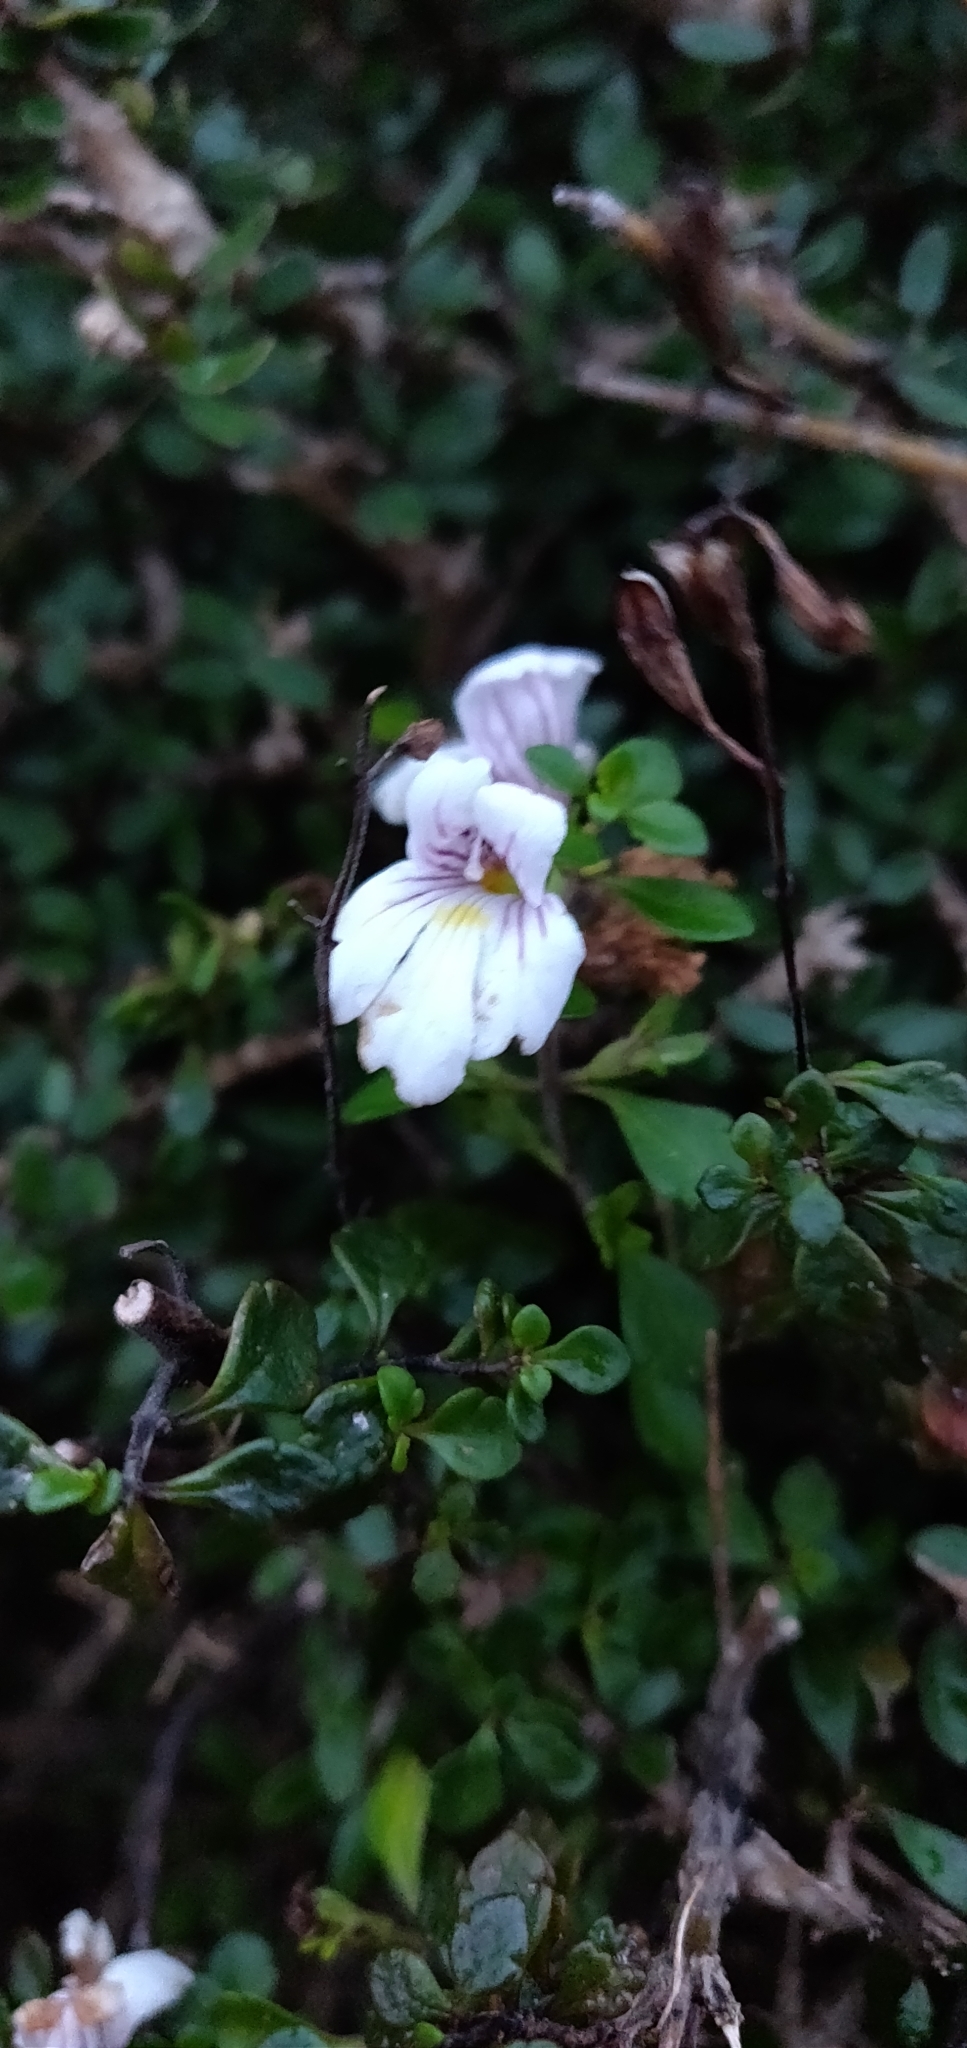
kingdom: Plantae
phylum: Tracheophyta
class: Magnoliopsida
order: Lamiales
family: Orobanchaceae
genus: Euphrasia
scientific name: Euphrasia cuneata
